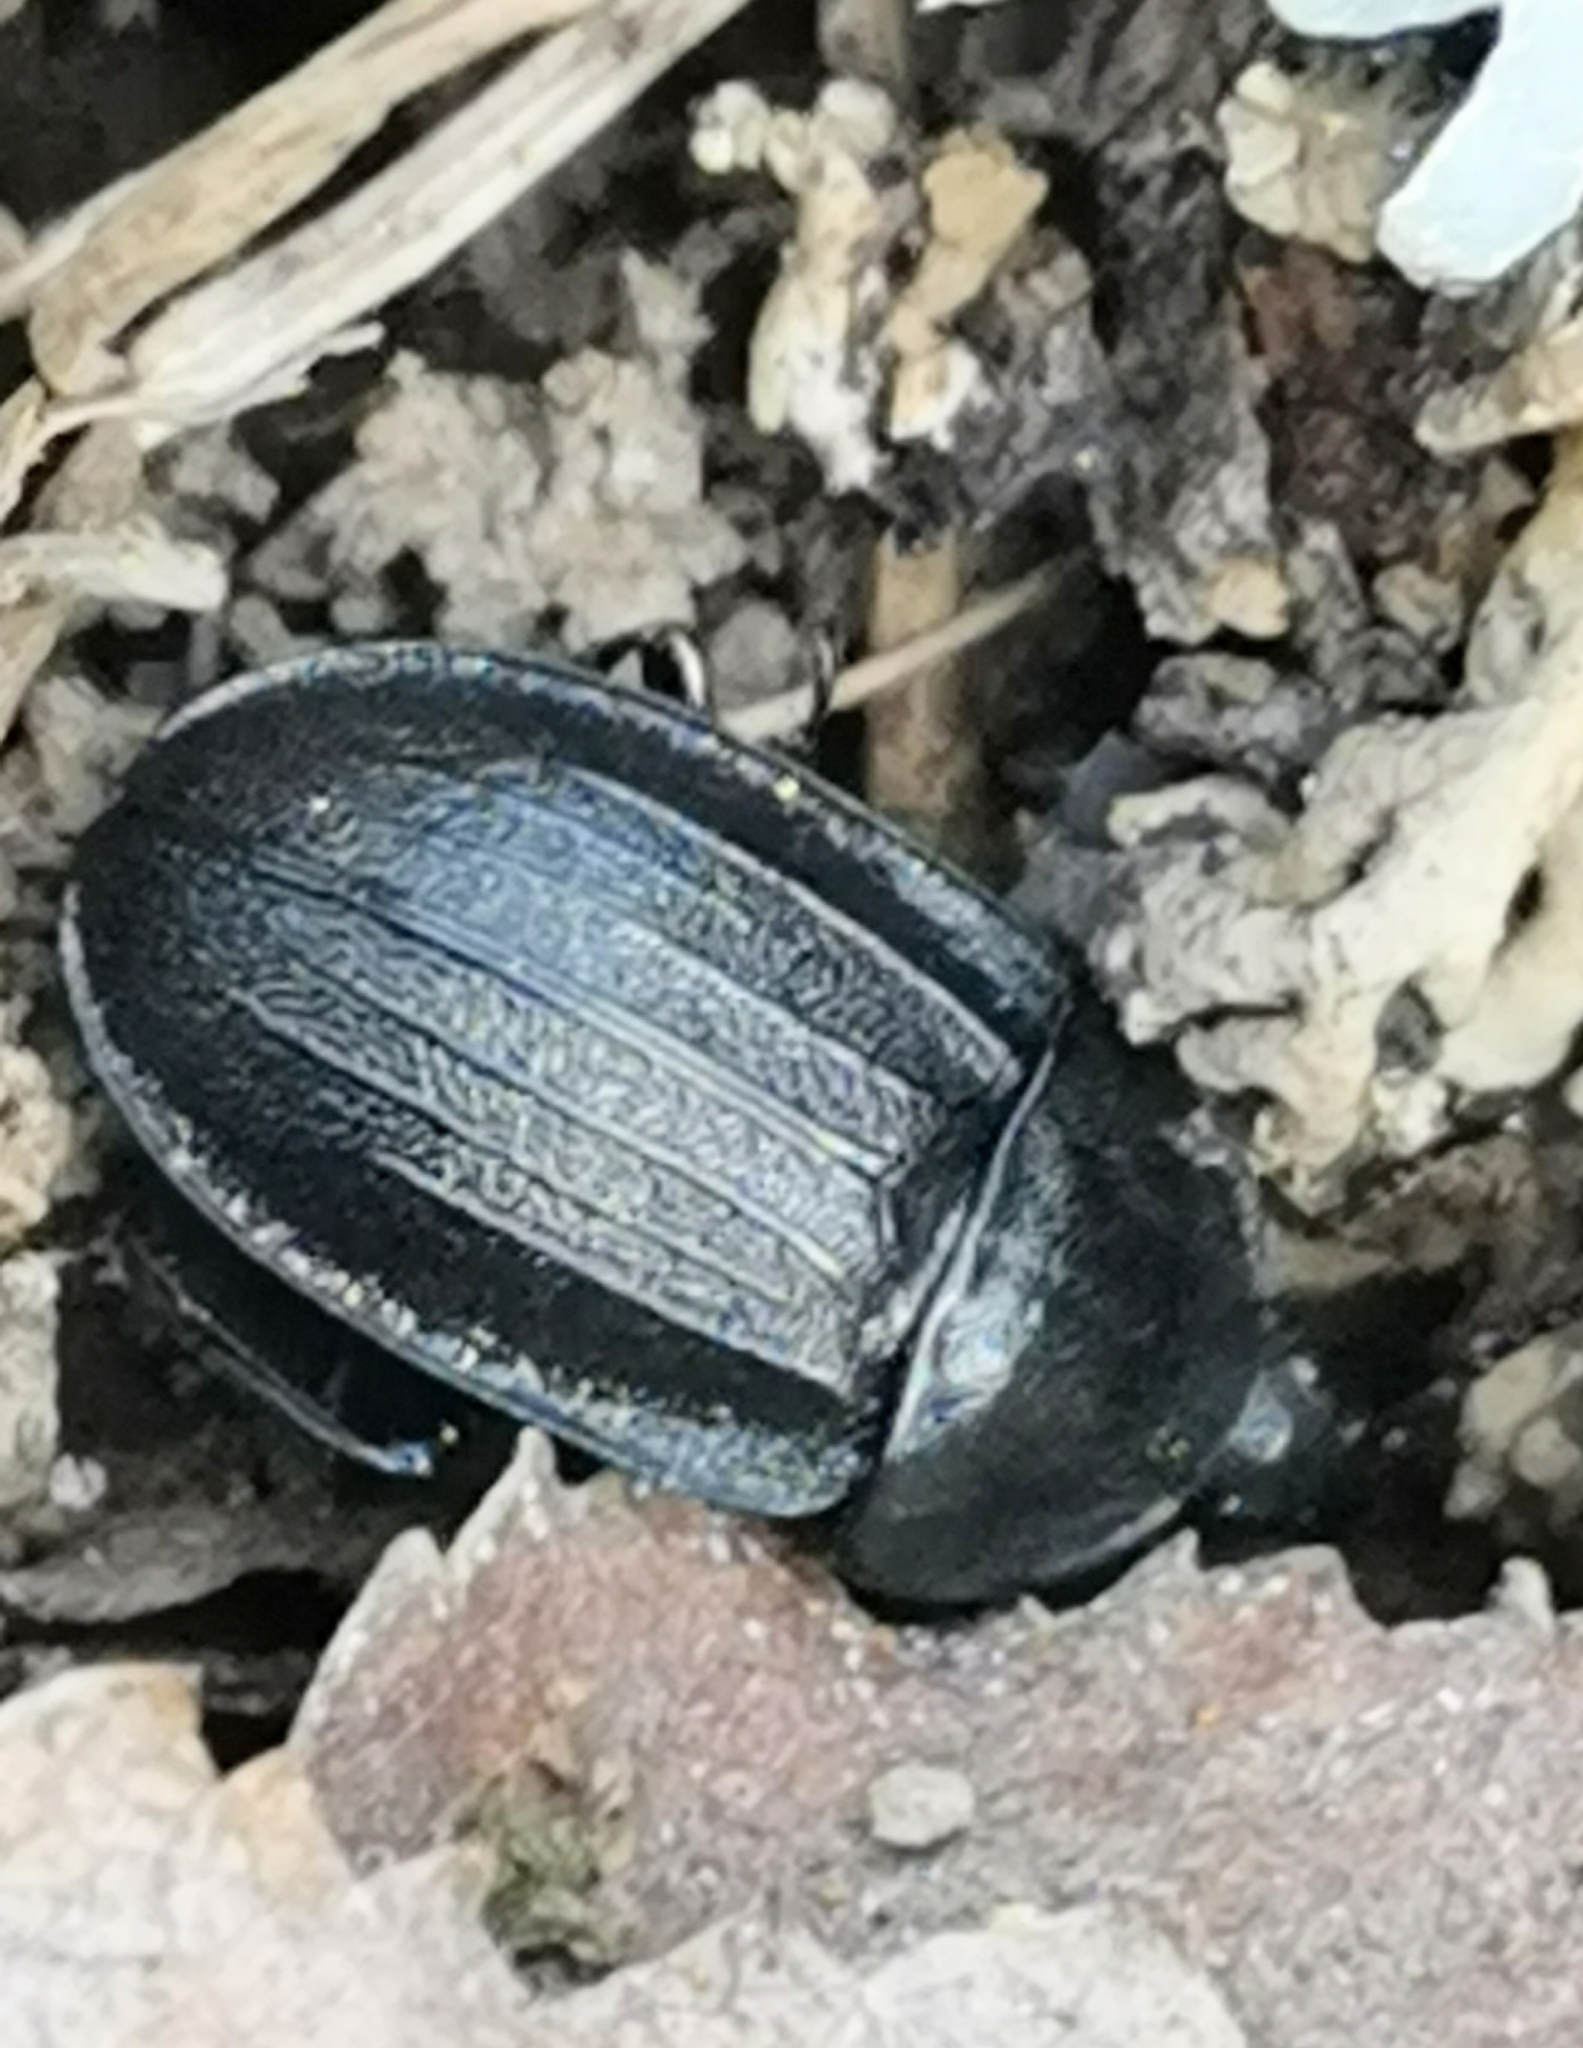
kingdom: Animalia
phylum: Arthropoda
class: Insecta
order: Coleoptera
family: Staphylinidae
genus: Silpha
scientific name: Silpha atrata
